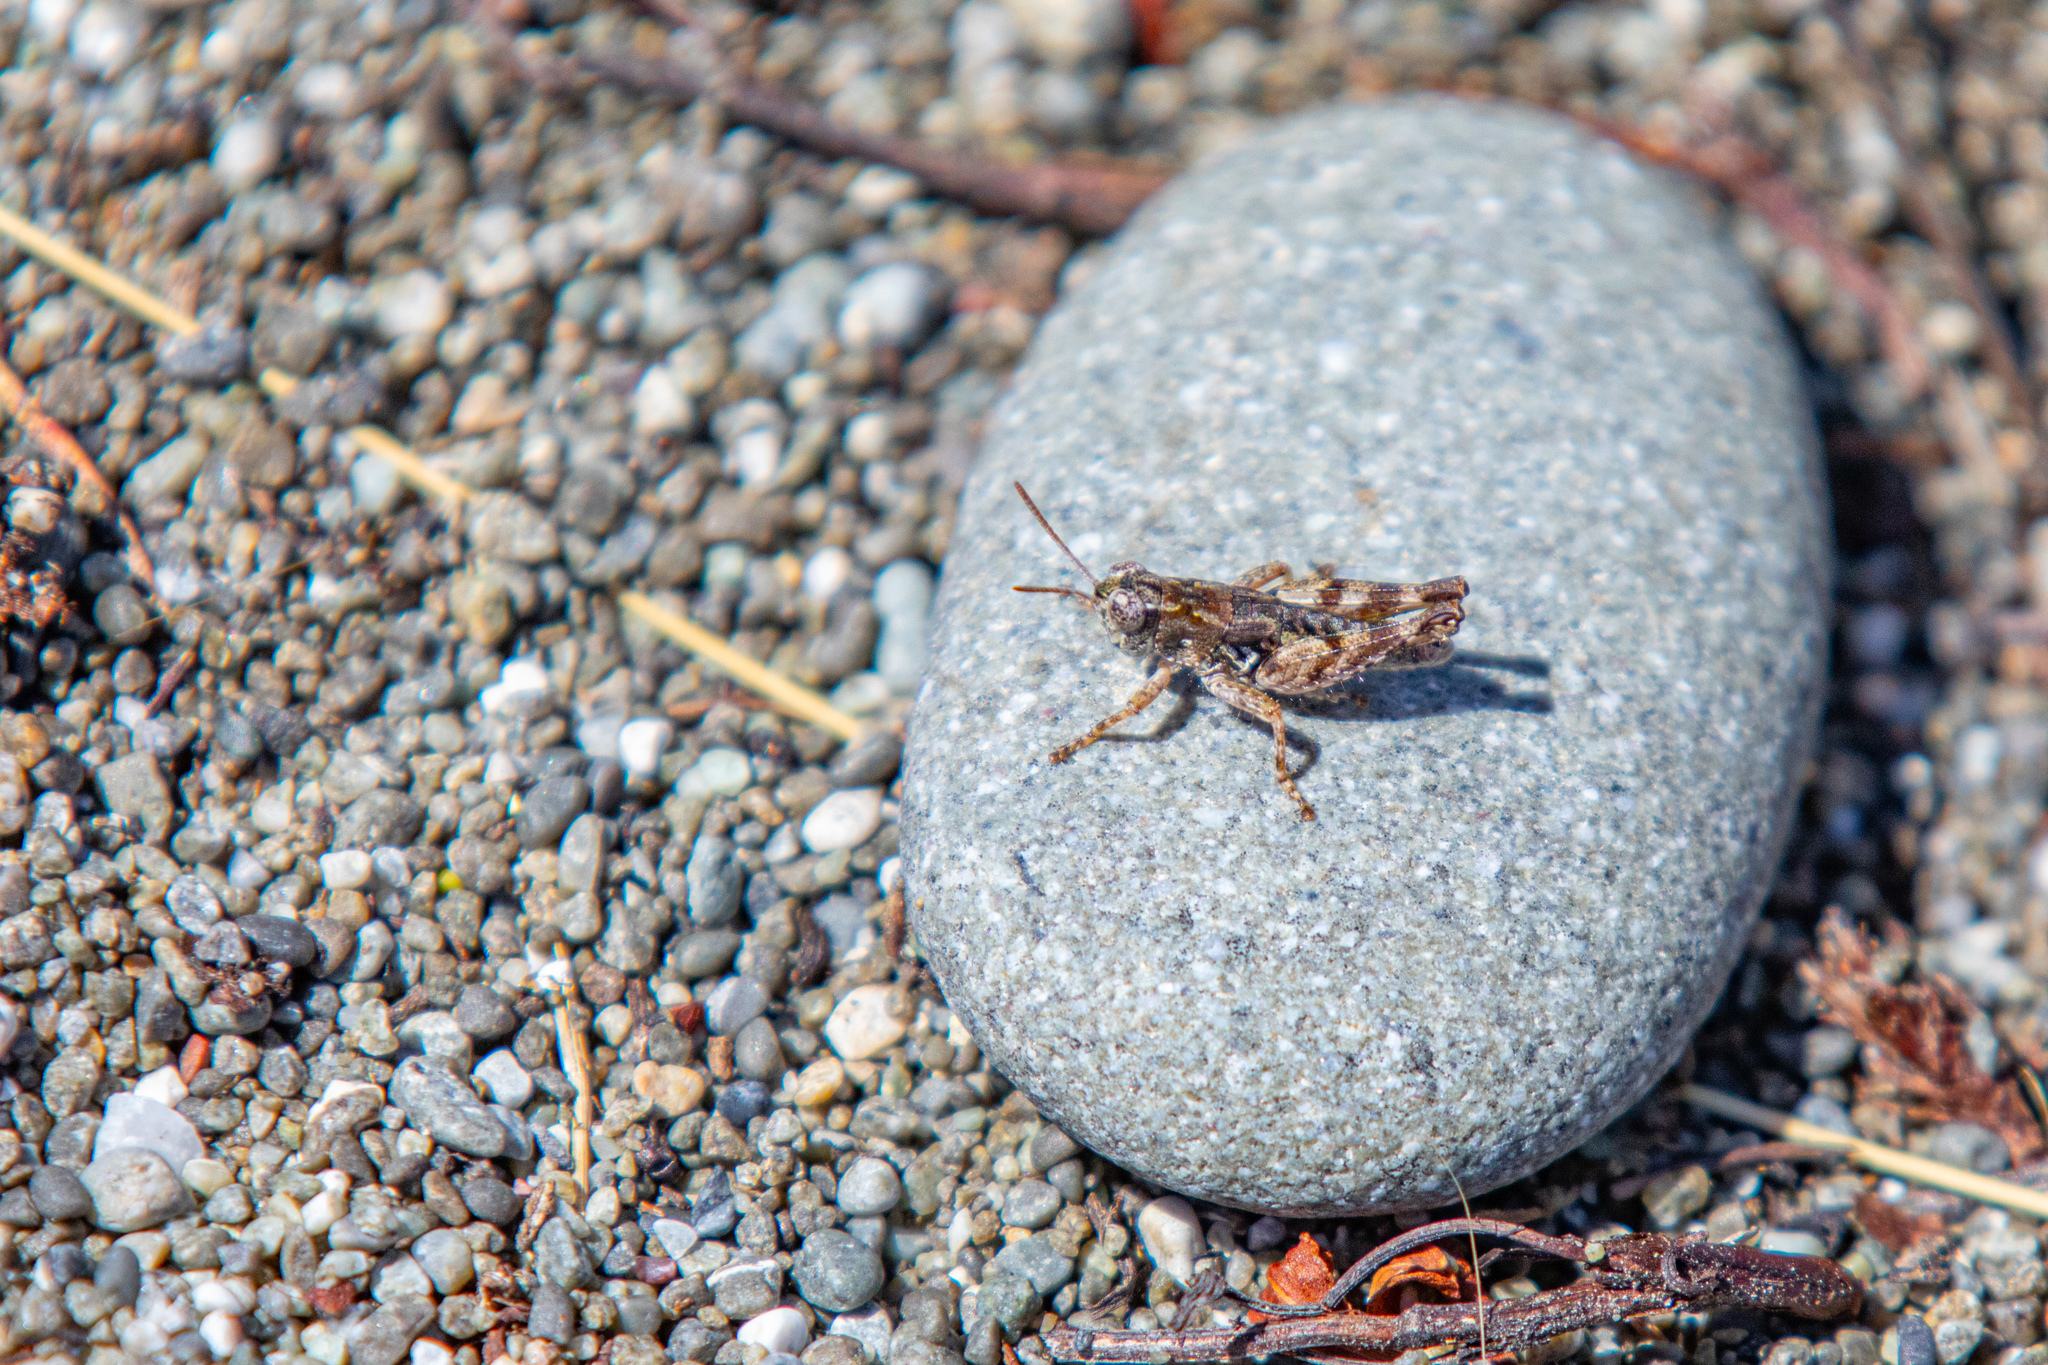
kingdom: Animalia
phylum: Arthropoda
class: Insecta
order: Orthoptera
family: Acrididae
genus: Phaulacridium
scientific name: Phaulacridium marginale
